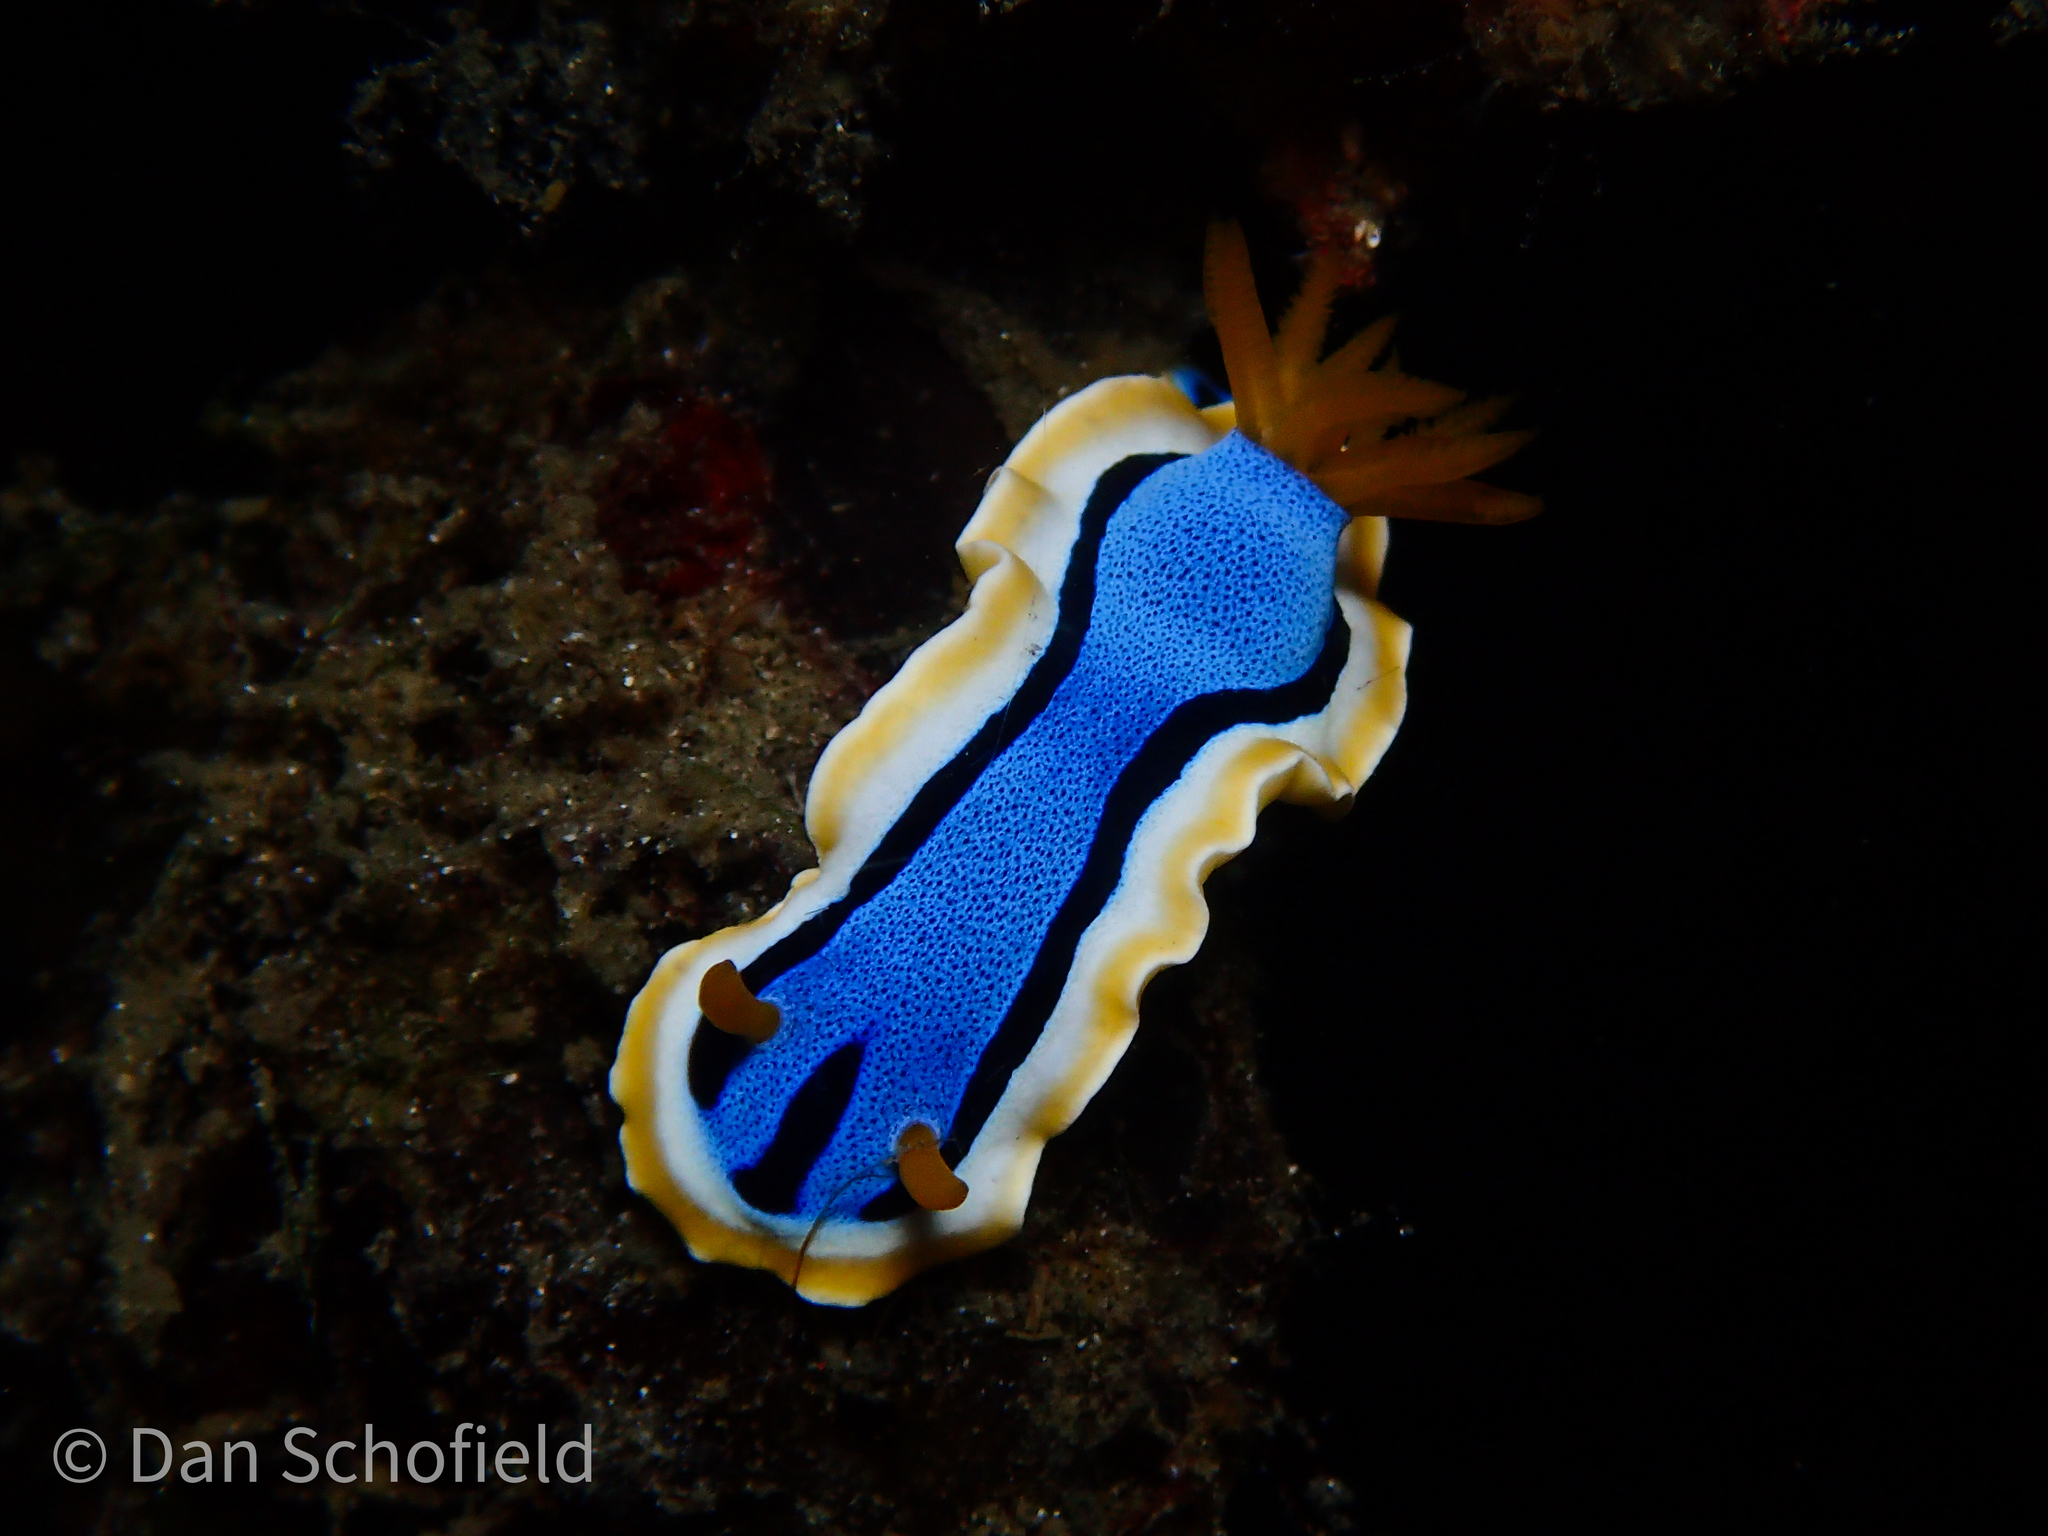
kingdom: Animalia
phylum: Mollusca
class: Gastropoda
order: Nudibranchia
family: Chromodorididae
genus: Chromodoris
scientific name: Chromodoris annae
